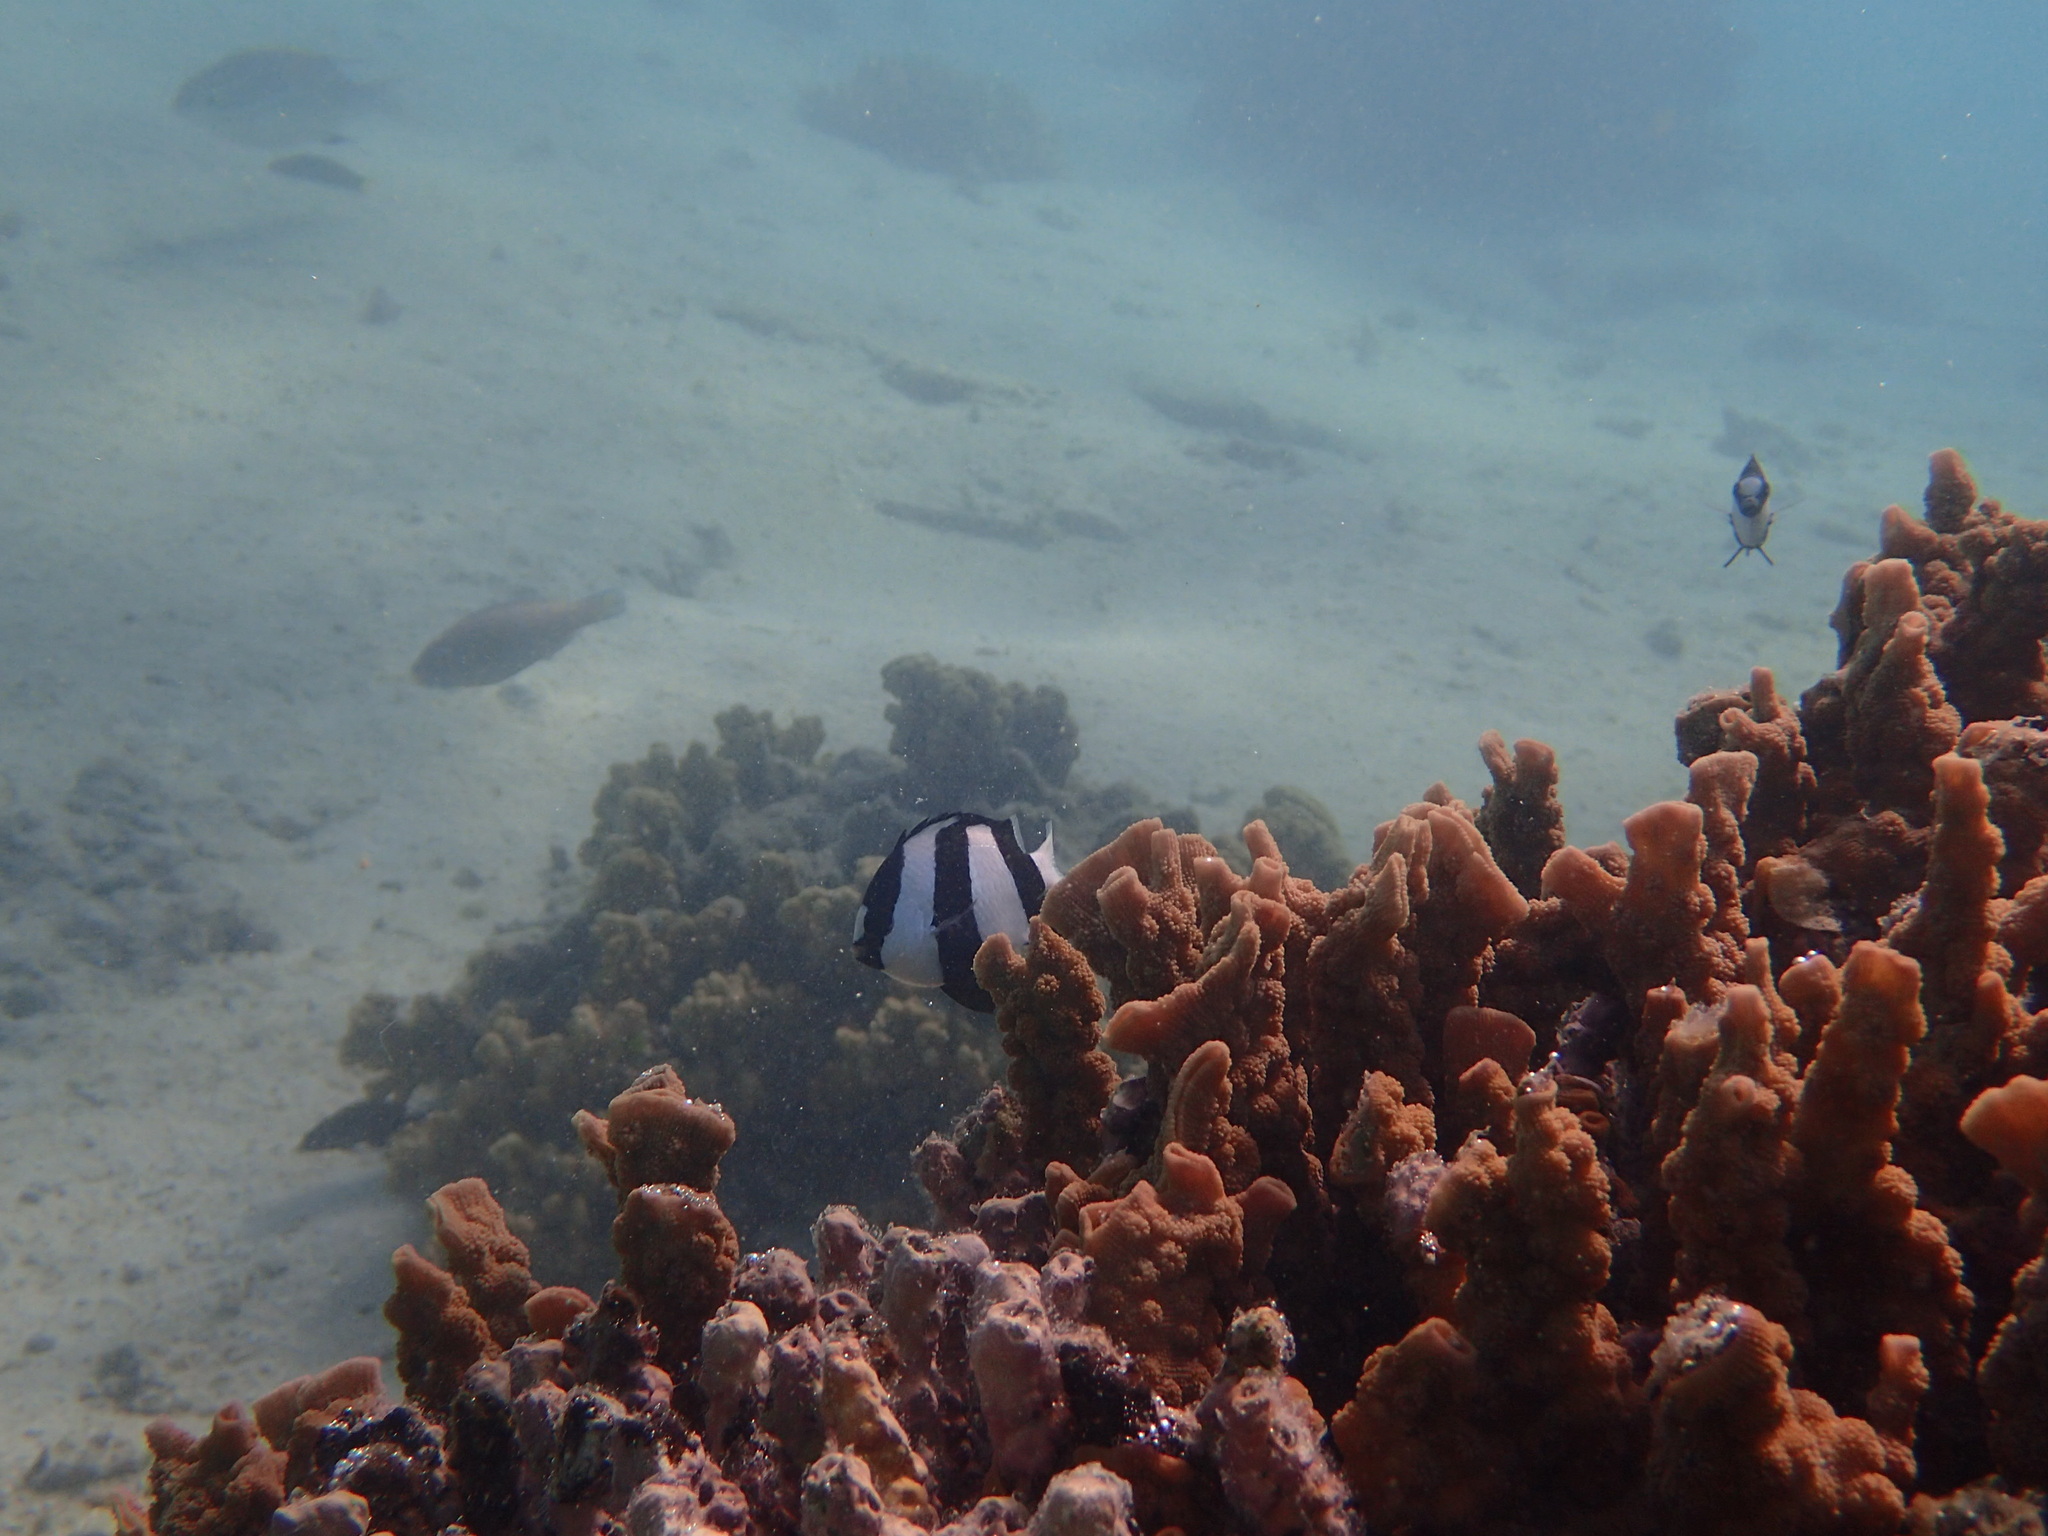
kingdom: Animalia
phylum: Chordata
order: Perciformes
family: Pomacentridae
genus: Dascyllus
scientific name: Dascyllus aruanus
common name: Humbug dascyllus
